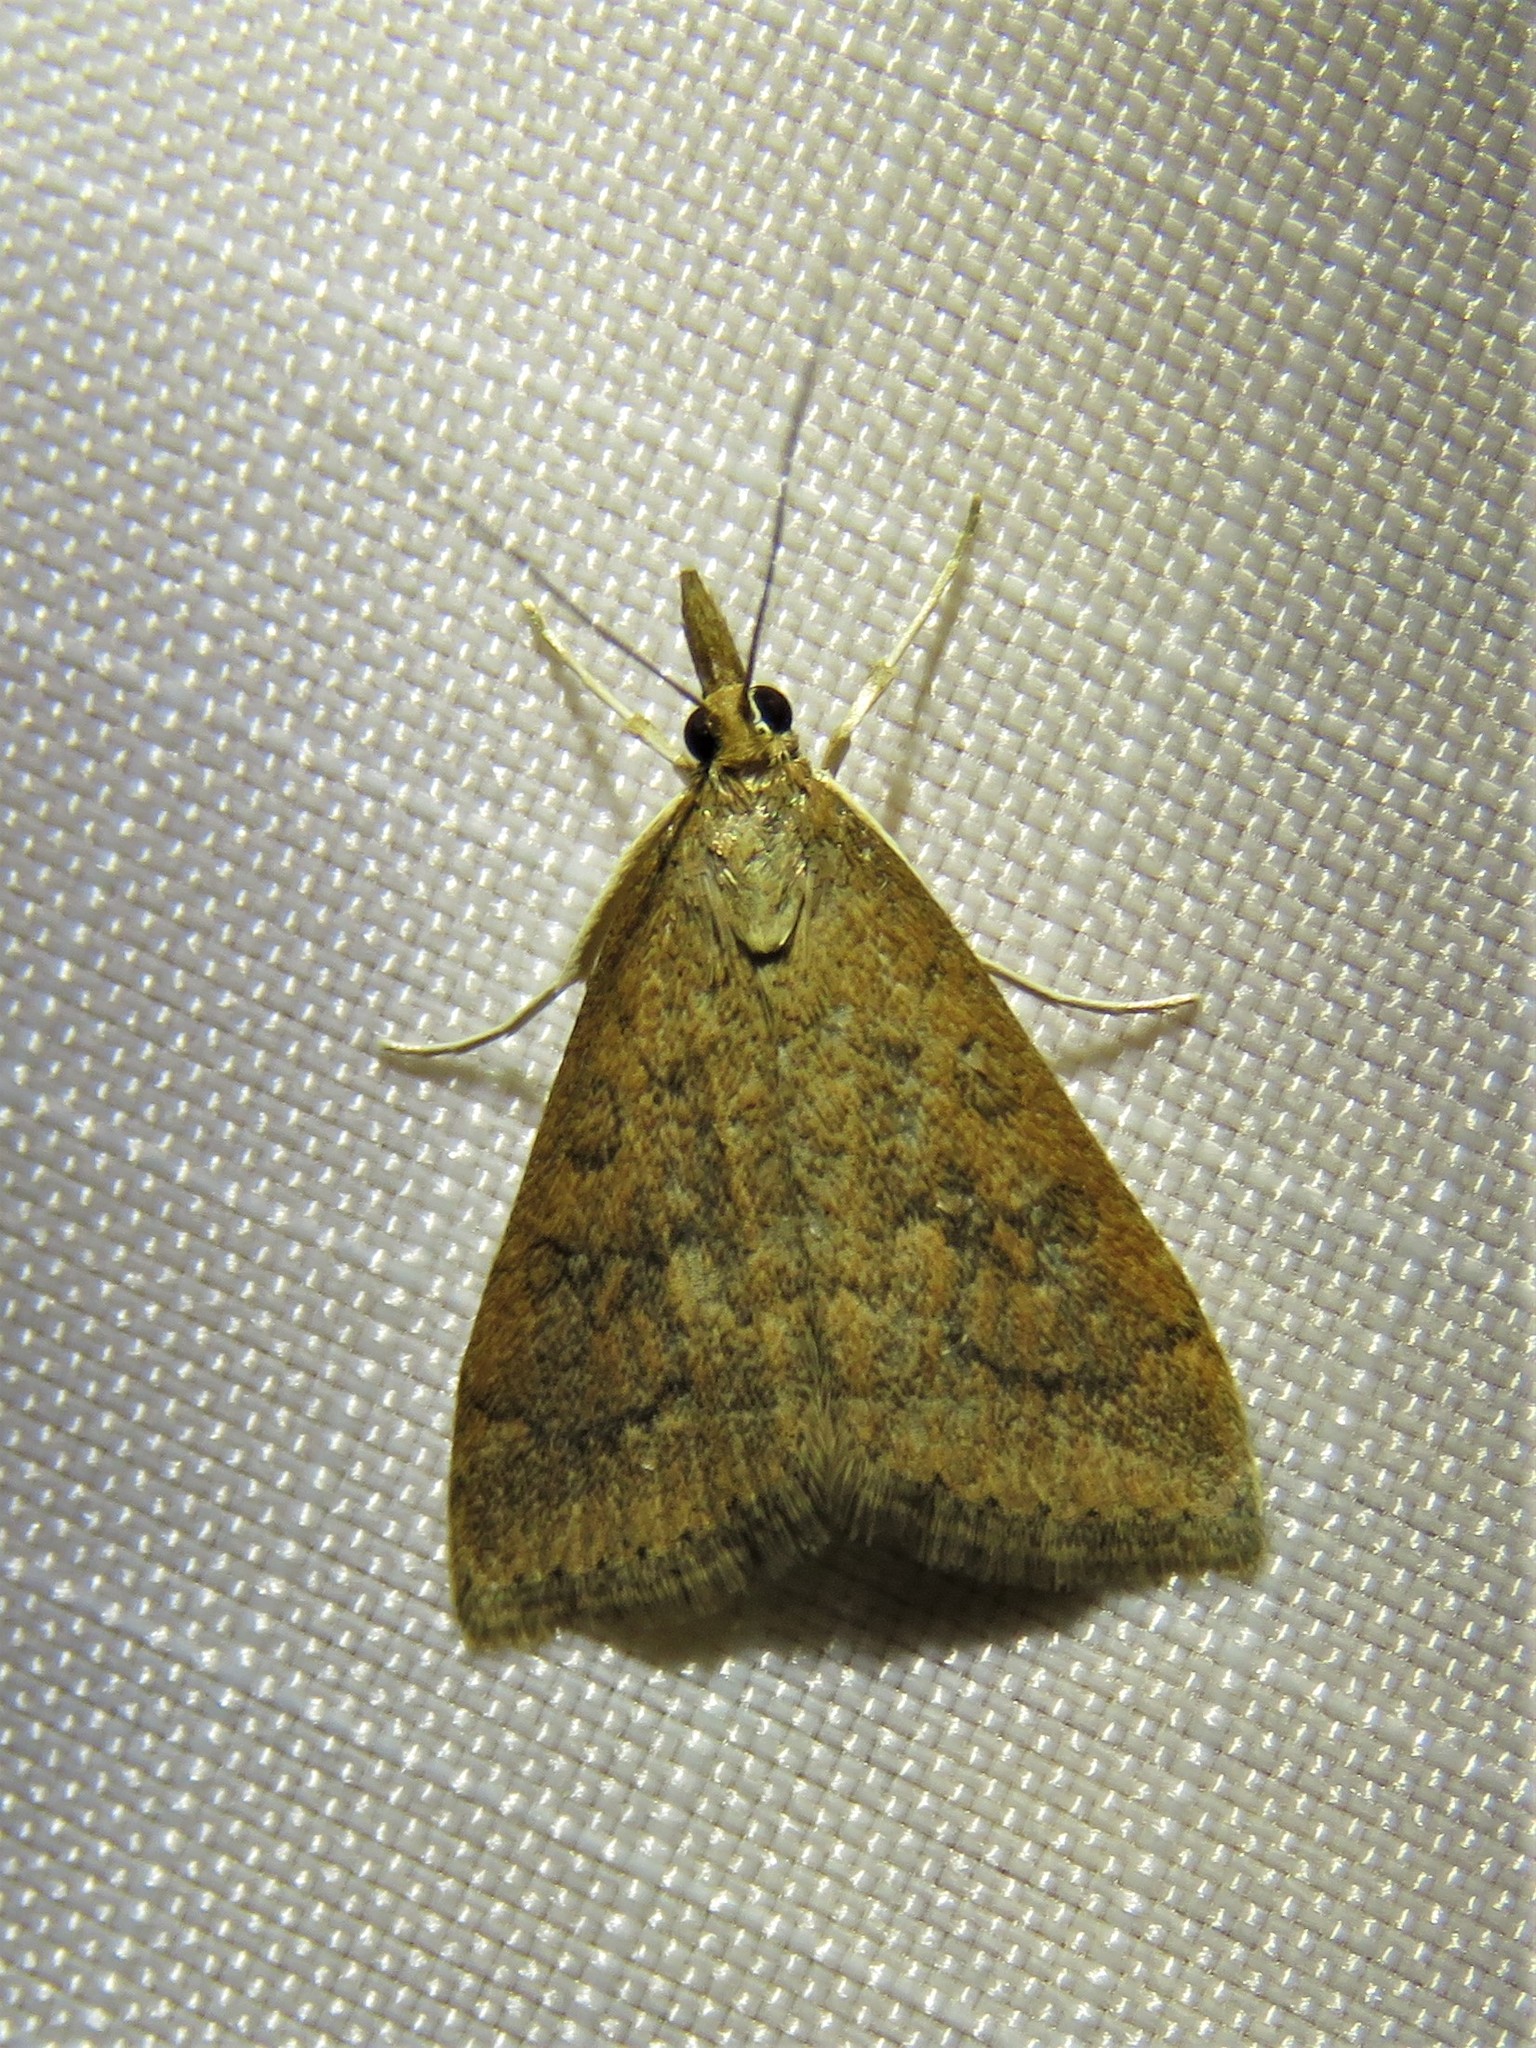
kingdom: Animalia
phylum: Arthropoda
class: Insecta
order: Lepidoptera
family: Crambidae
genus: Udea
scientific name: Udea rubigalis
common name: Celery leaftier moth
